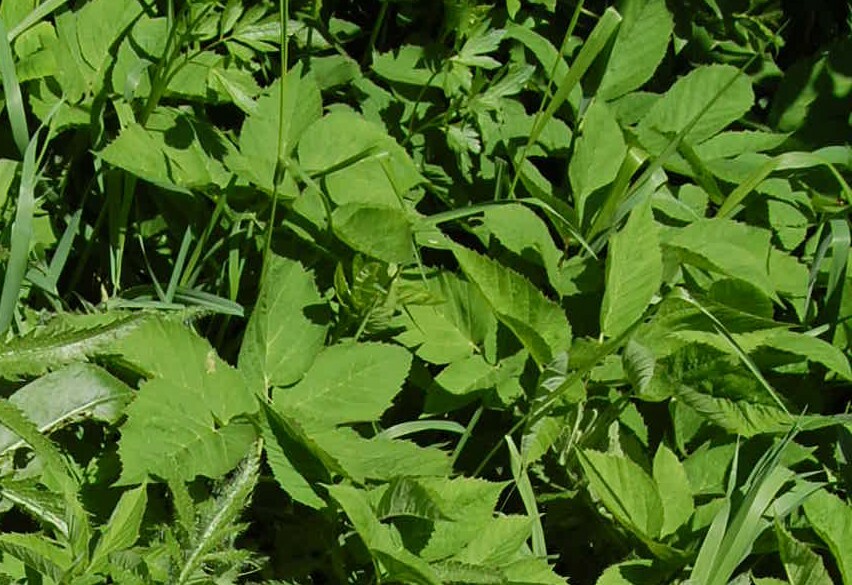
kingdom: Plantae
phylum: Tracheophyta
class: Magnoliopsida
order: Apiales
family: Apiaceae
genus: Aegopodium
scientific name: Aegopodium podagraria
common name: Ground-elder
